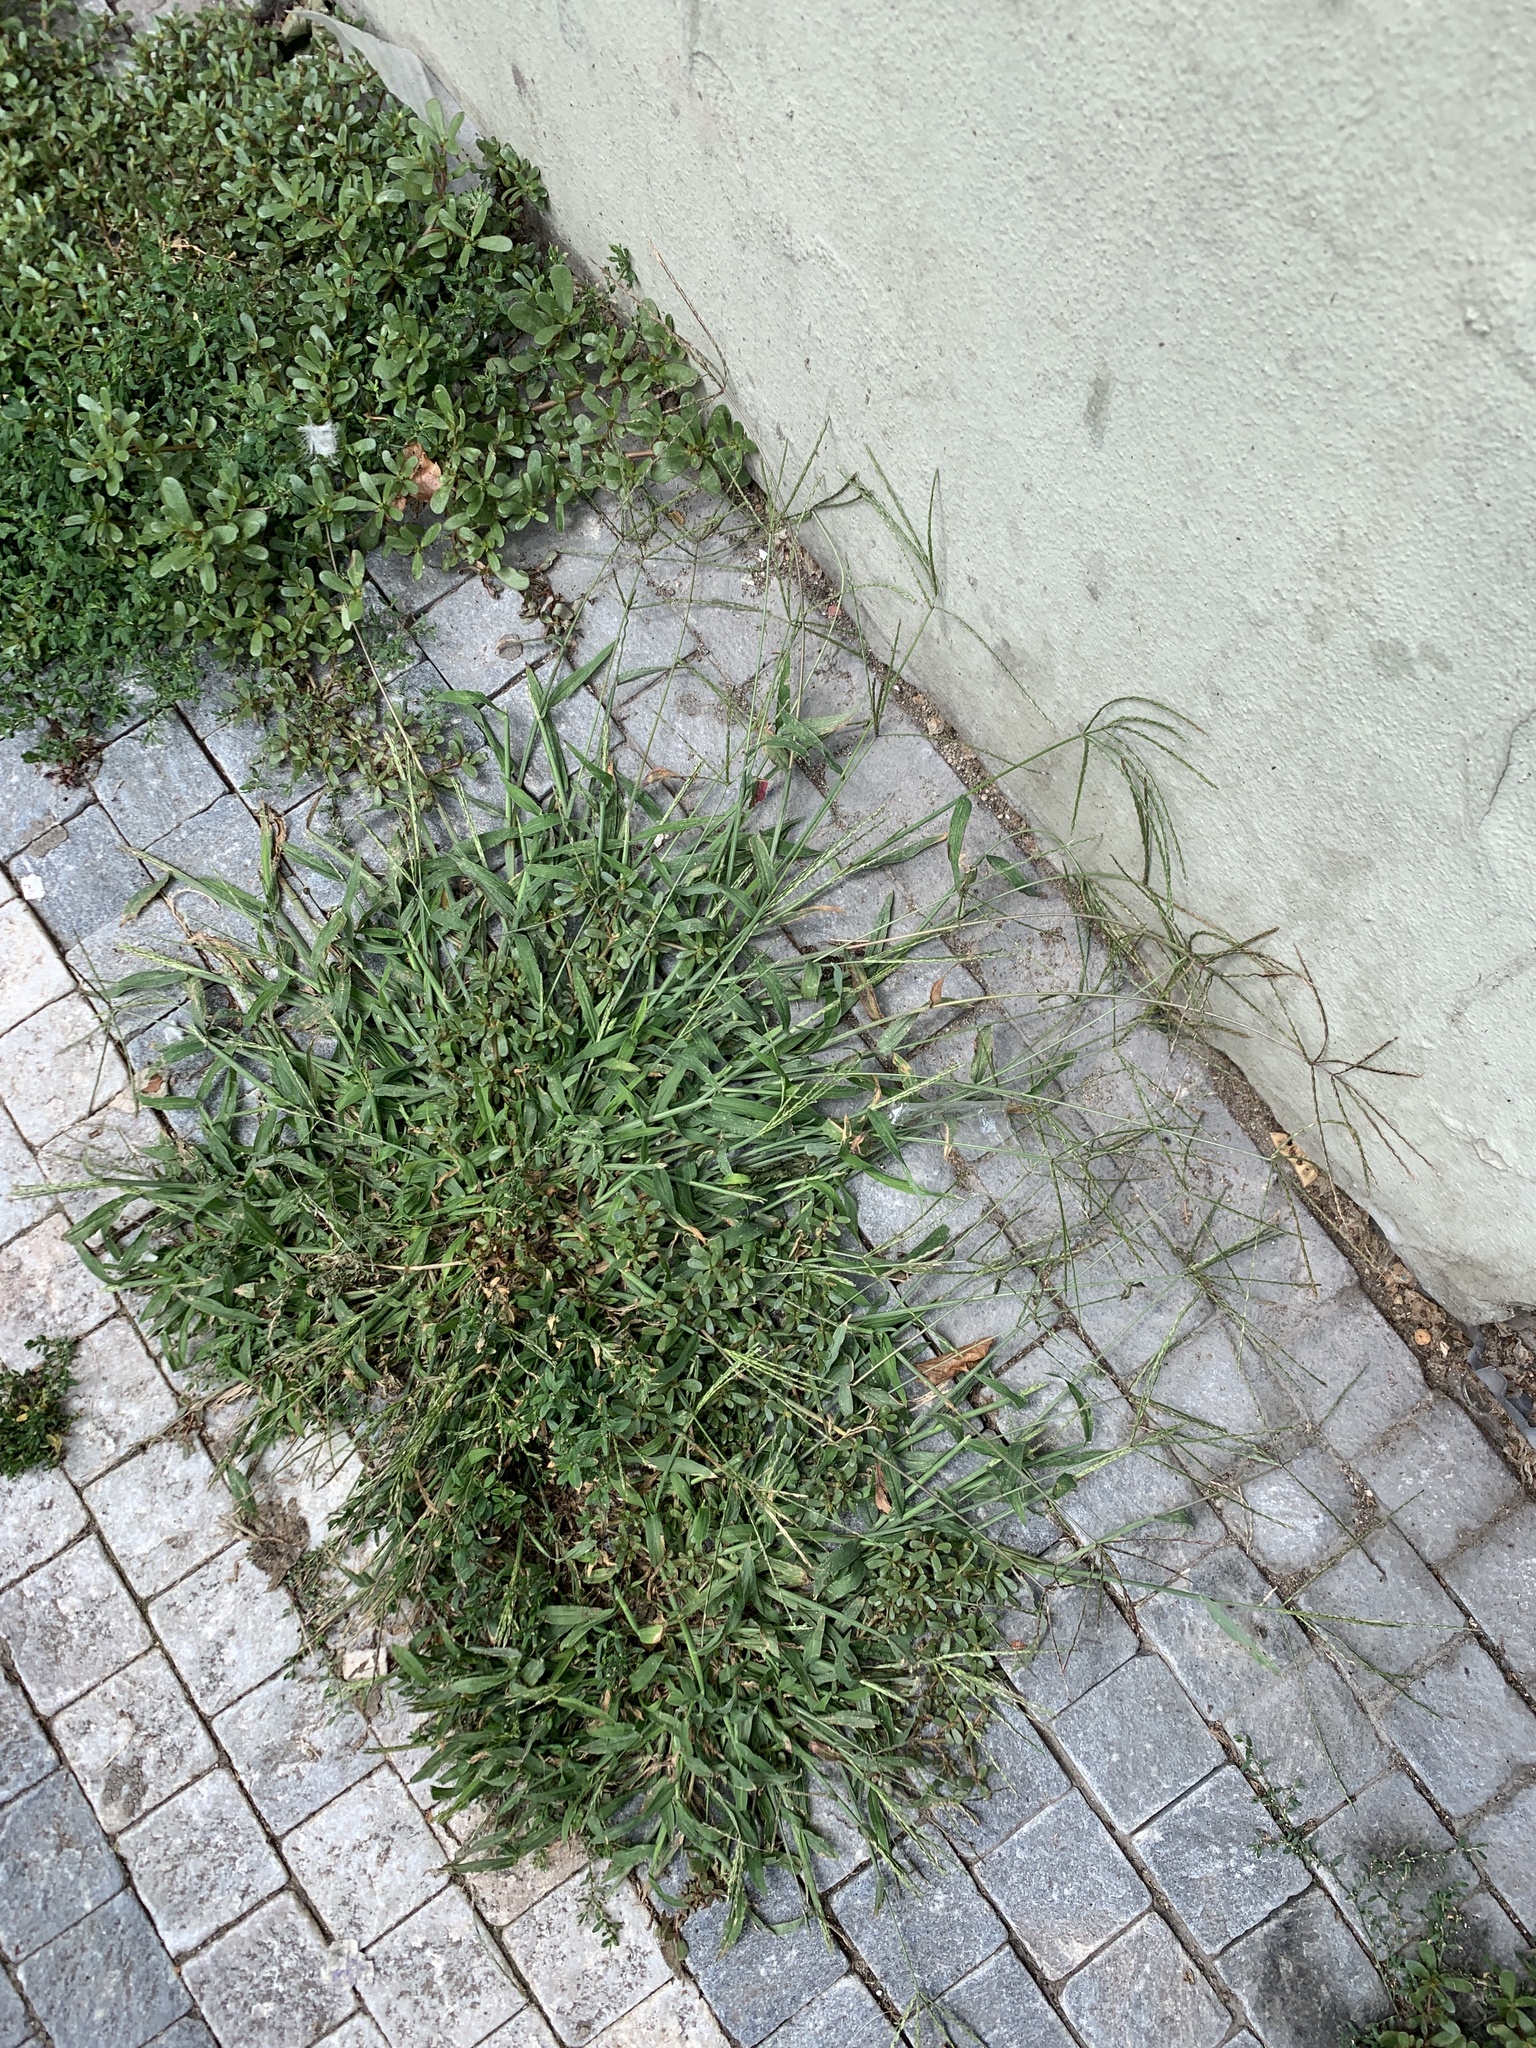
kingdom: Plantae
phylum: Tracheophyta
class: Liliopsida
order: Poales
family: Poaceae
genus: Digitaria
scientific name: Digitaria sanguinalis
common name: Hairy crabgrass
